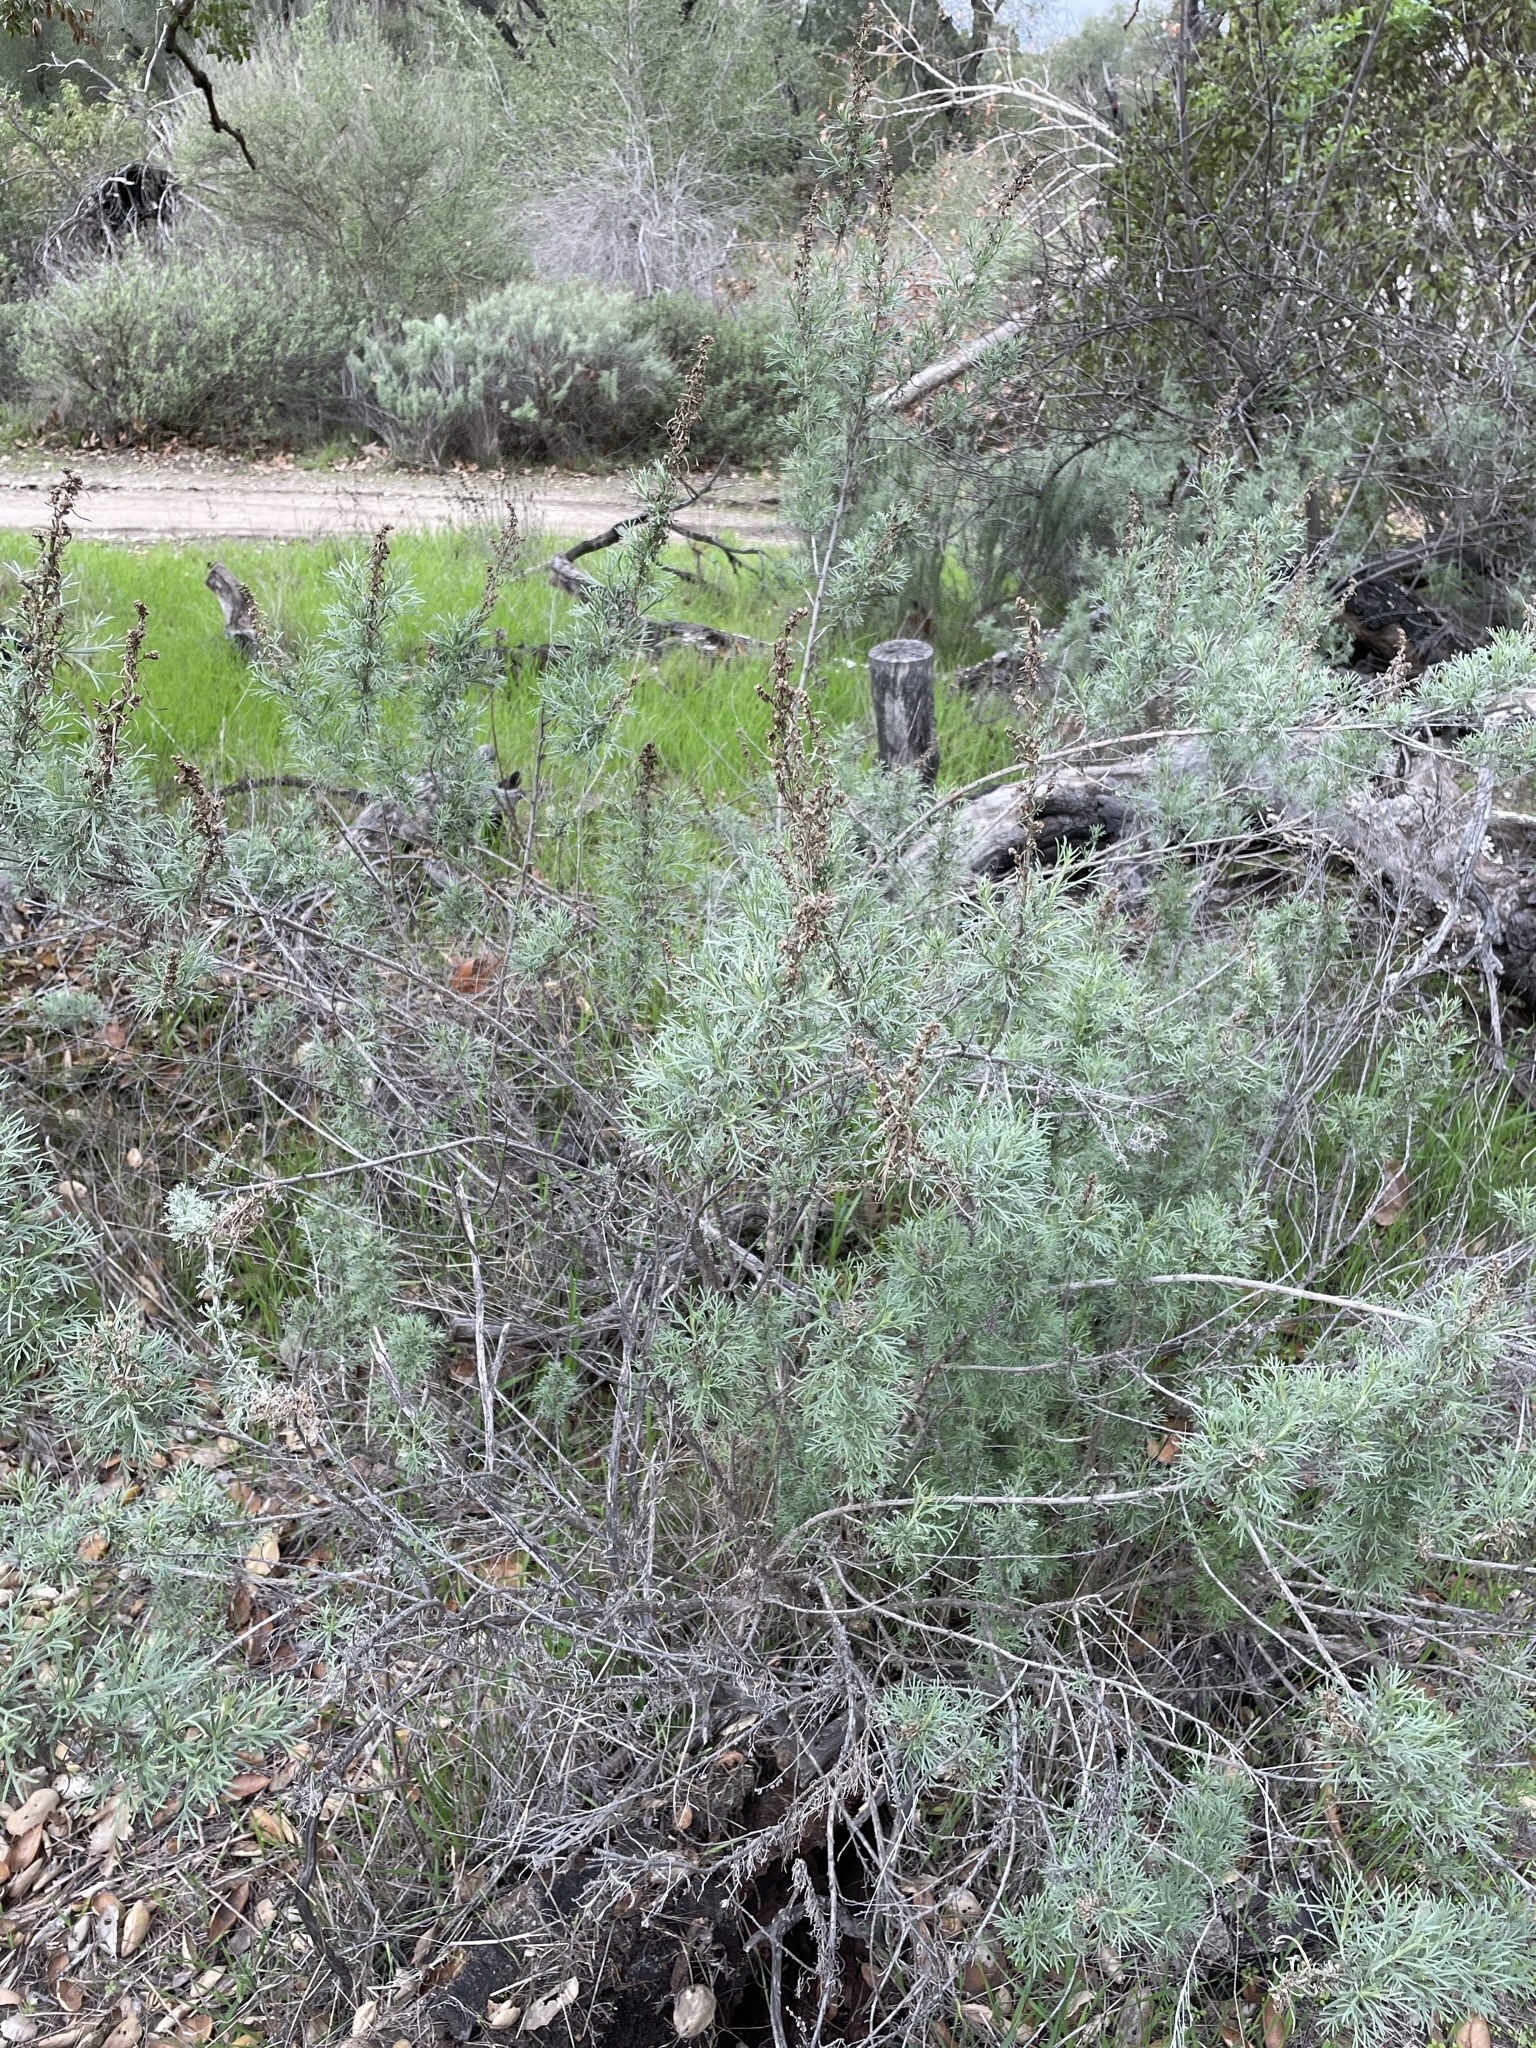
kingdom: Plantae
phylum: Tracheophyta
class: Magnoliopsida
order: Asterales
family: Asteraceae
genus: Artemisia
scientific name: Artemisia californica
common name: California sagebrush
